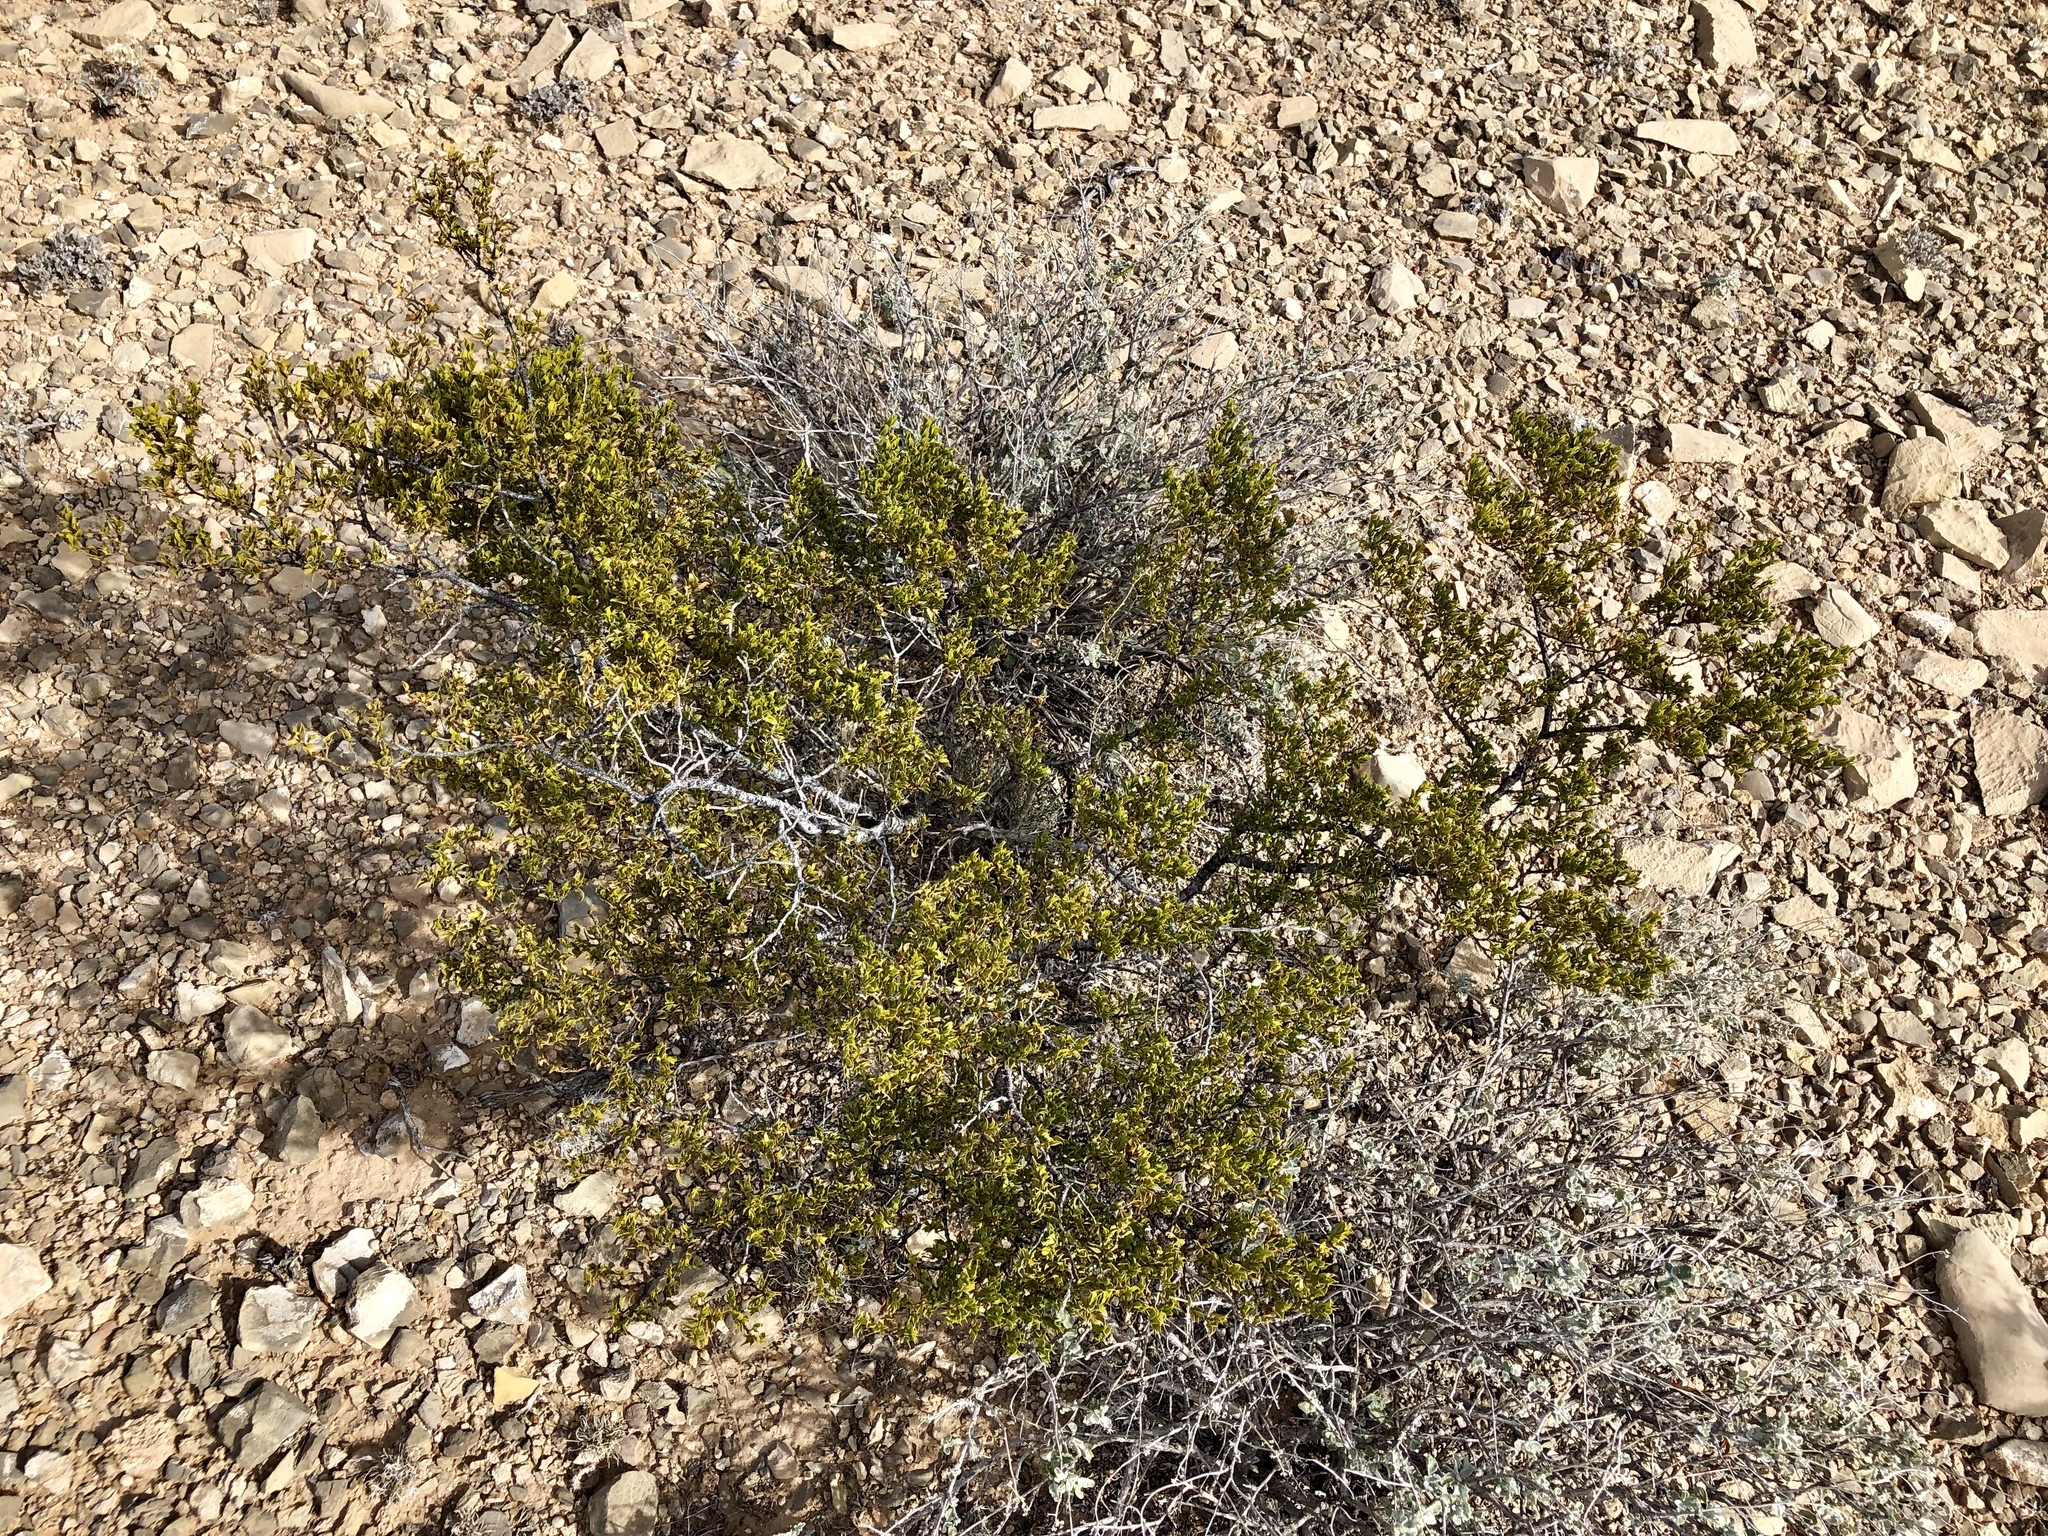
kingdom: Plantae
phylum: Tracheophyta
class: Magnoliopsida
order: Zygophyllales
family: Zygophyllaceae
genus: Larrea
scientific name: Larrea tridentata
